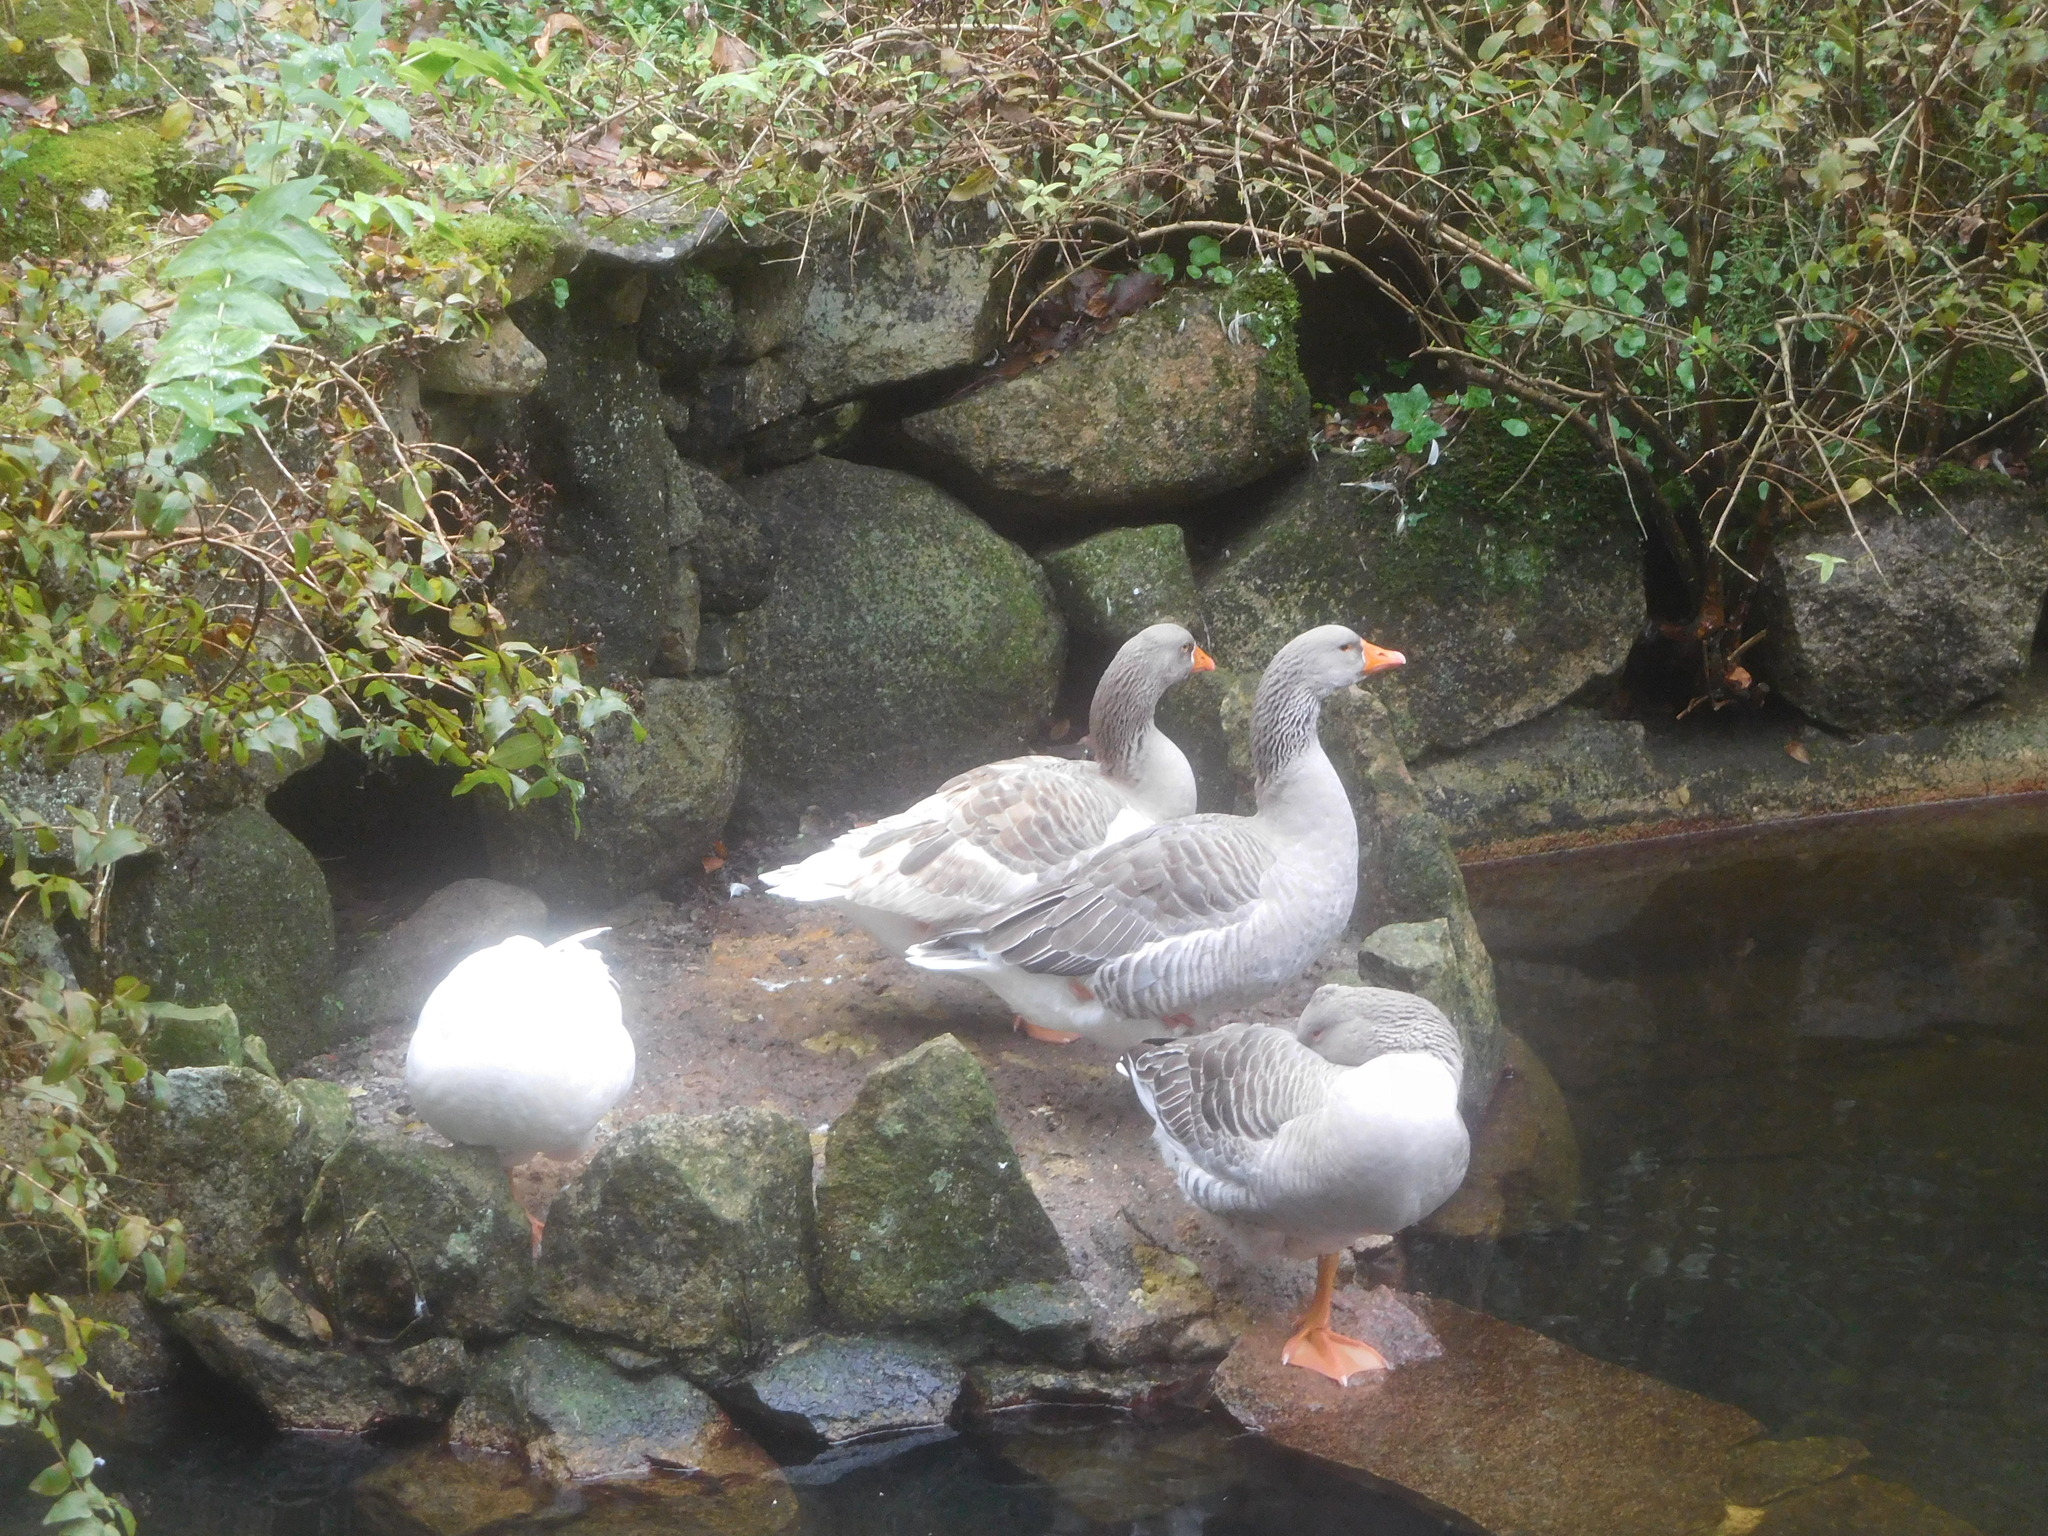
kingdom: Animalia
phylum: Chordata
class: Aves
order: Anseriformes
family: Anatidae
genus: Anser
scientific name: Anser anser
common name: Greylag goose
